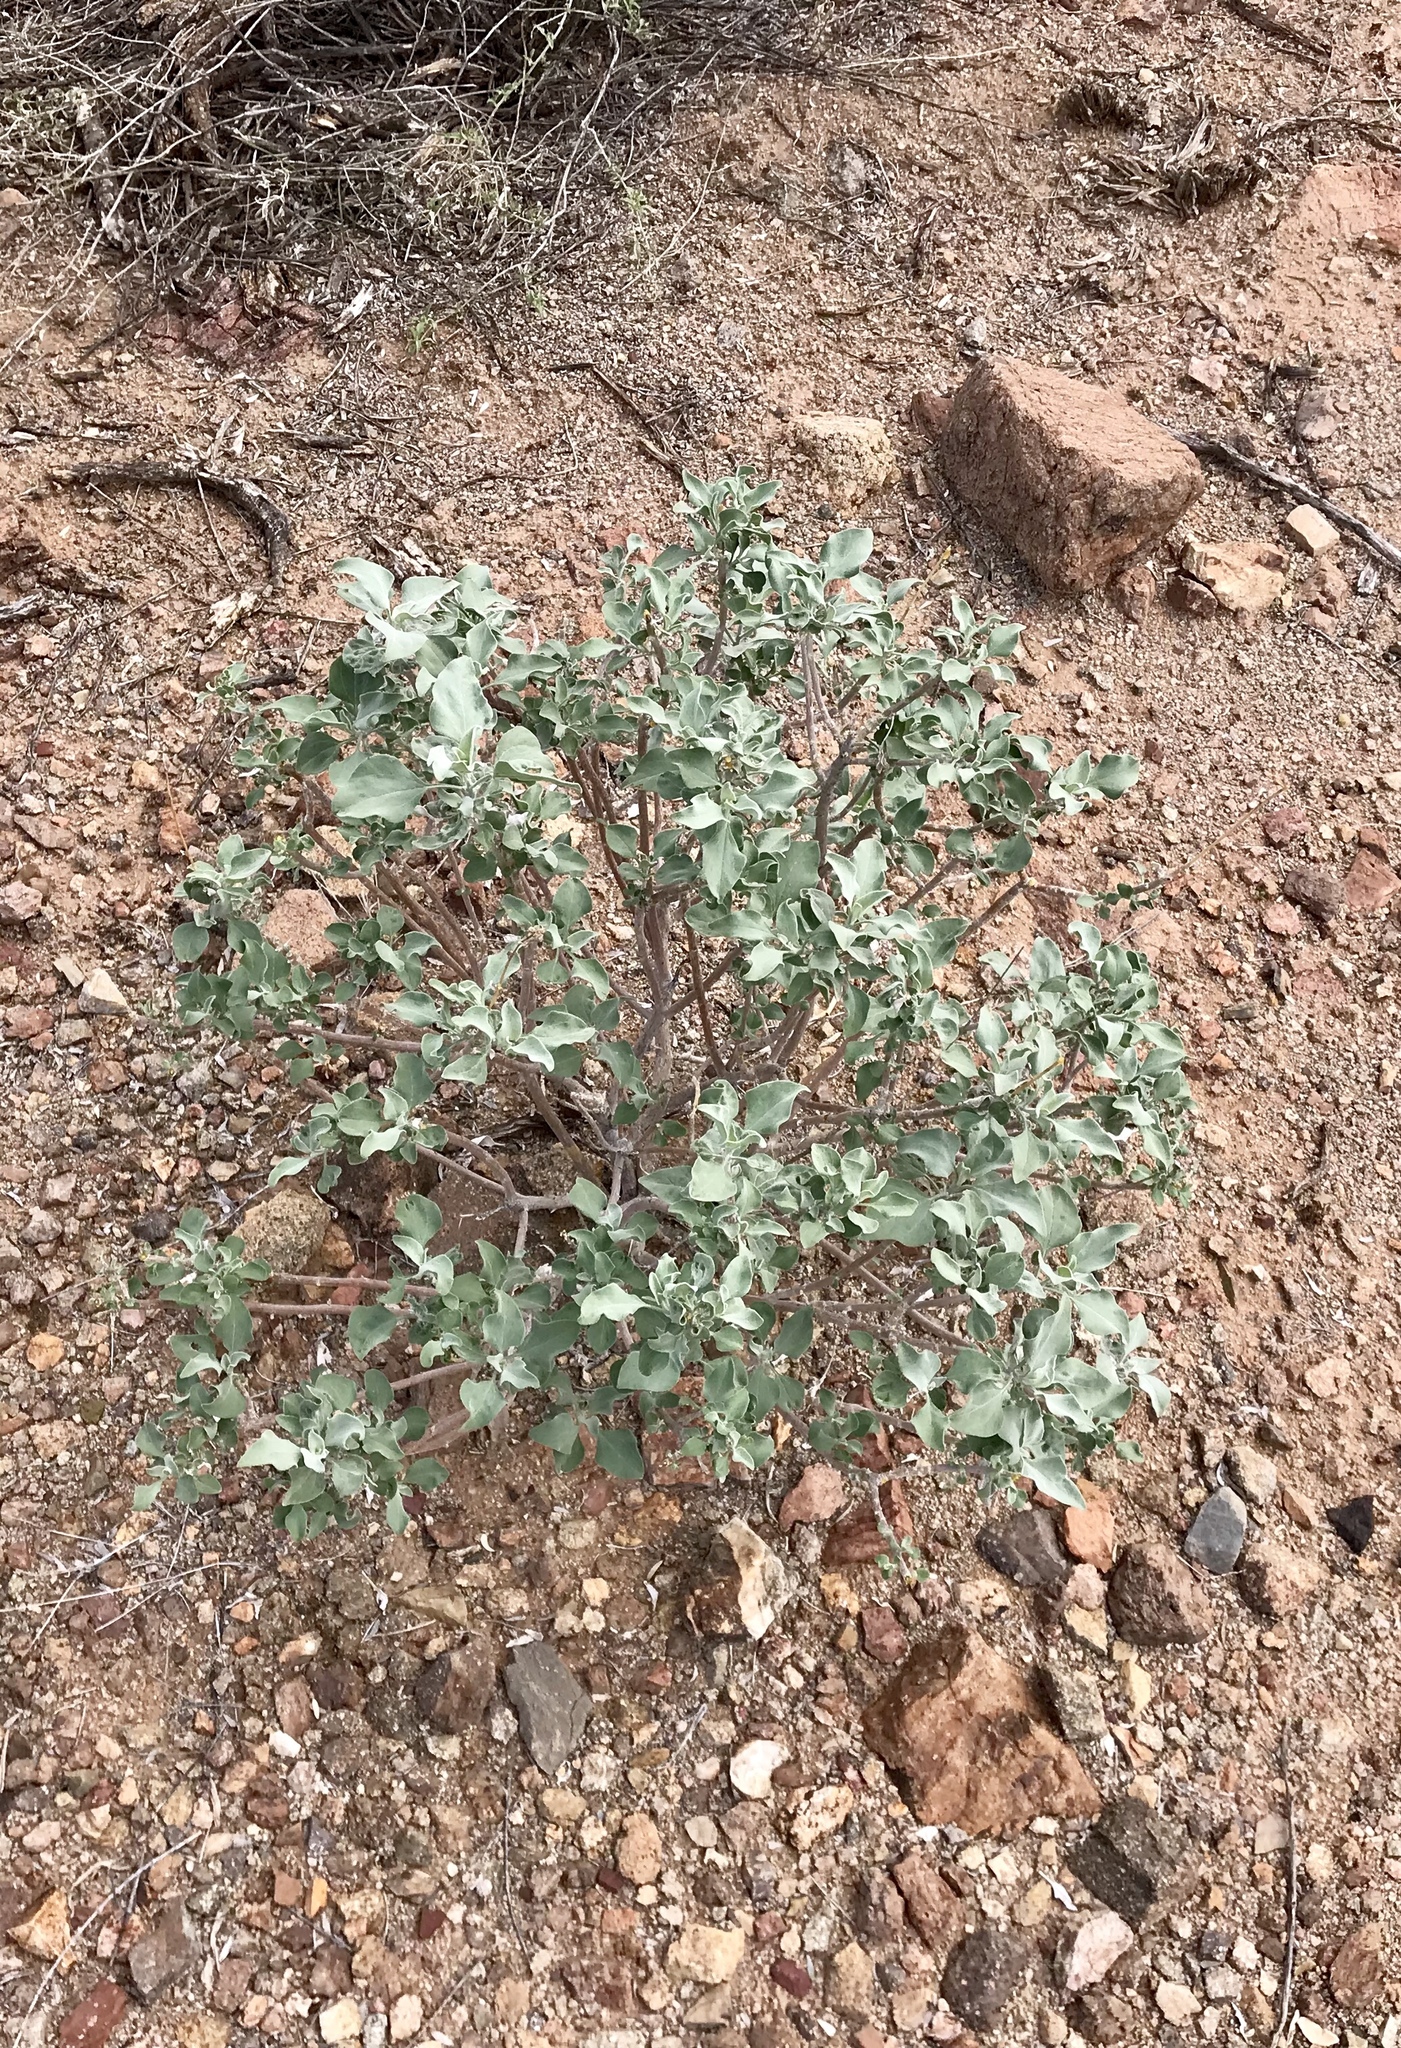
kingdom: Plantae
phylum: Tracheophyta
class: Magnoliopsida
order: Asterales
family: Asteraceae
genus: Encelia
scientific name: Encelia farinosa
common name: Brittlebush
